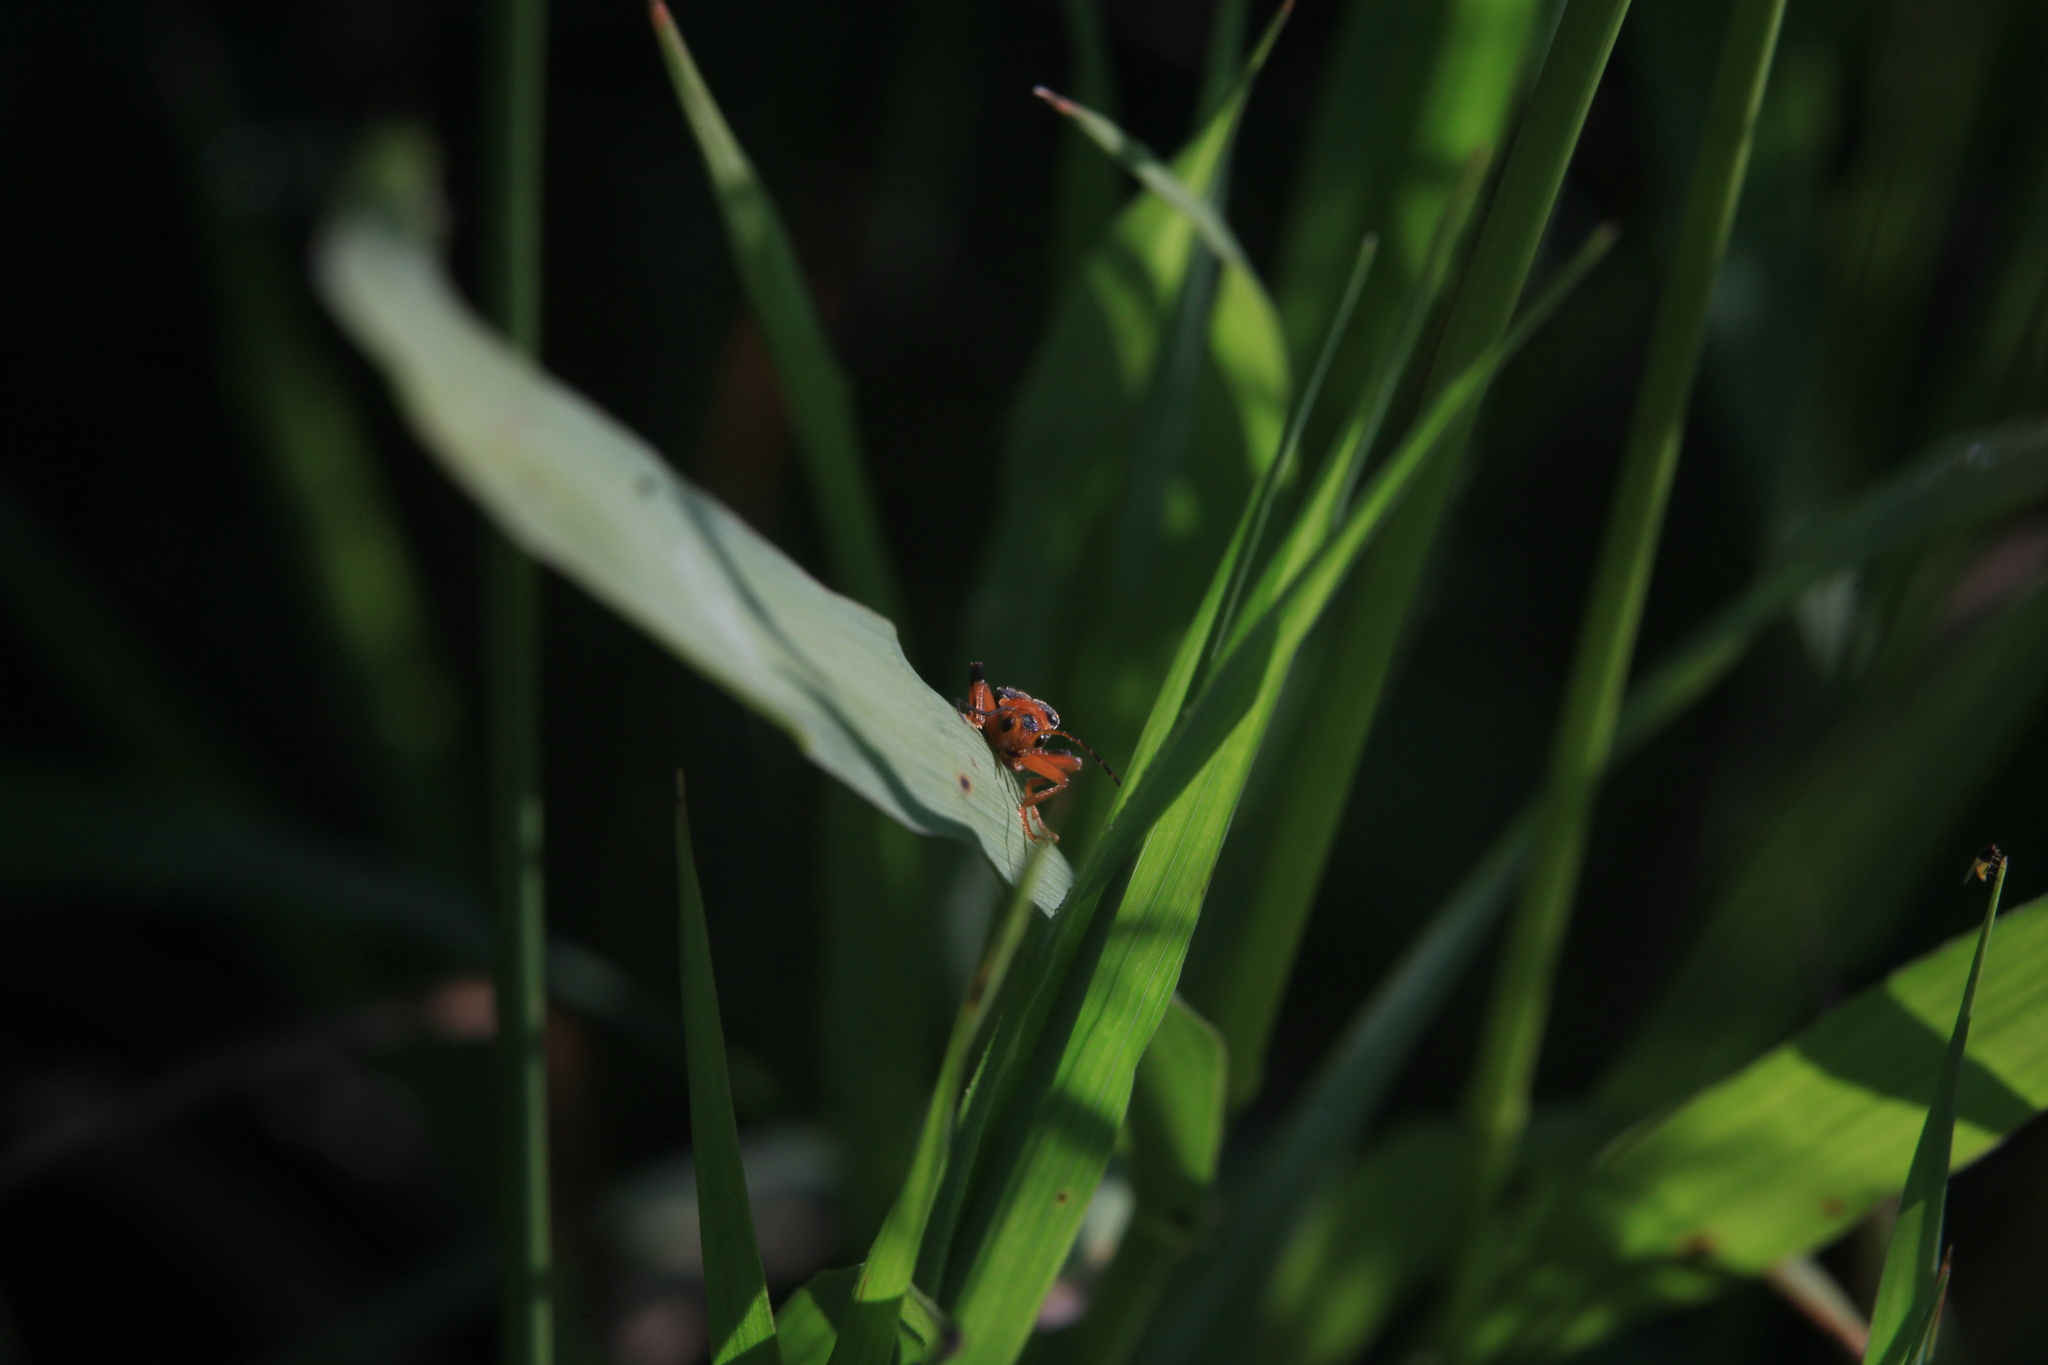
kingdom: Animalia
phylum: Arthropoda
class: Insecta
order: Coleoptera
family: Cantharidae
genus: Cantharis
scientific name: Cantharis livida
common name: Livid soldier beetle
